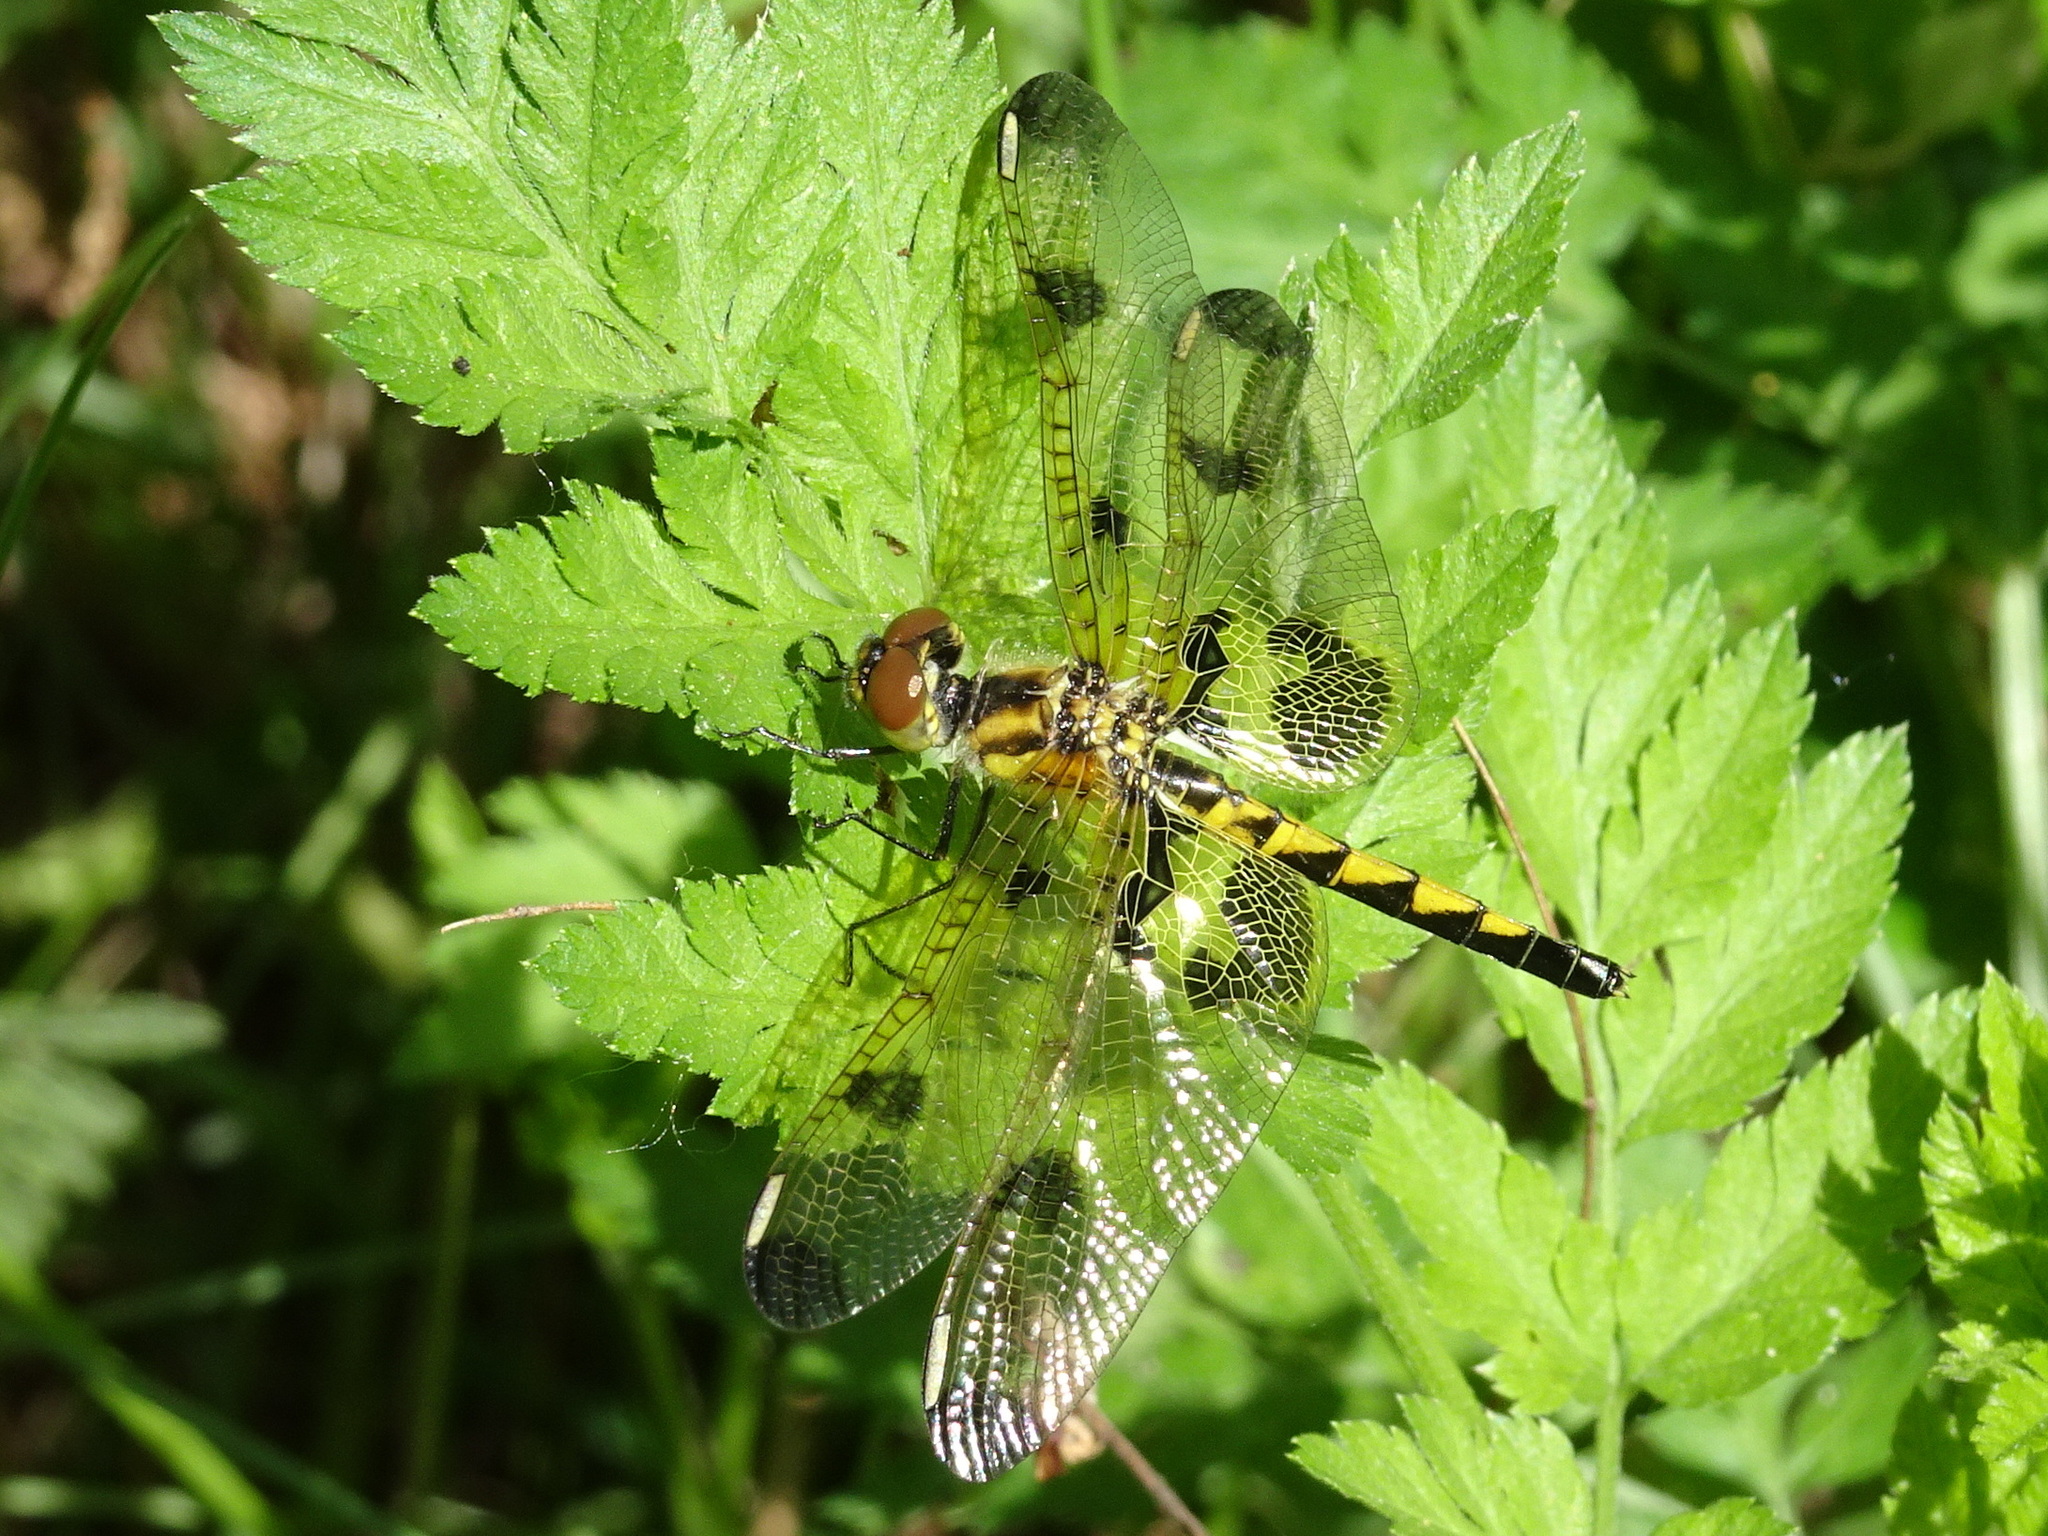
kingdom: Animalia
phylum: Arthropoda
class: Insecta
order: Odonata
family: Libellulidae
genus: Celithemis
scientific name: Celithemis elisa
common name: Calico pennant
